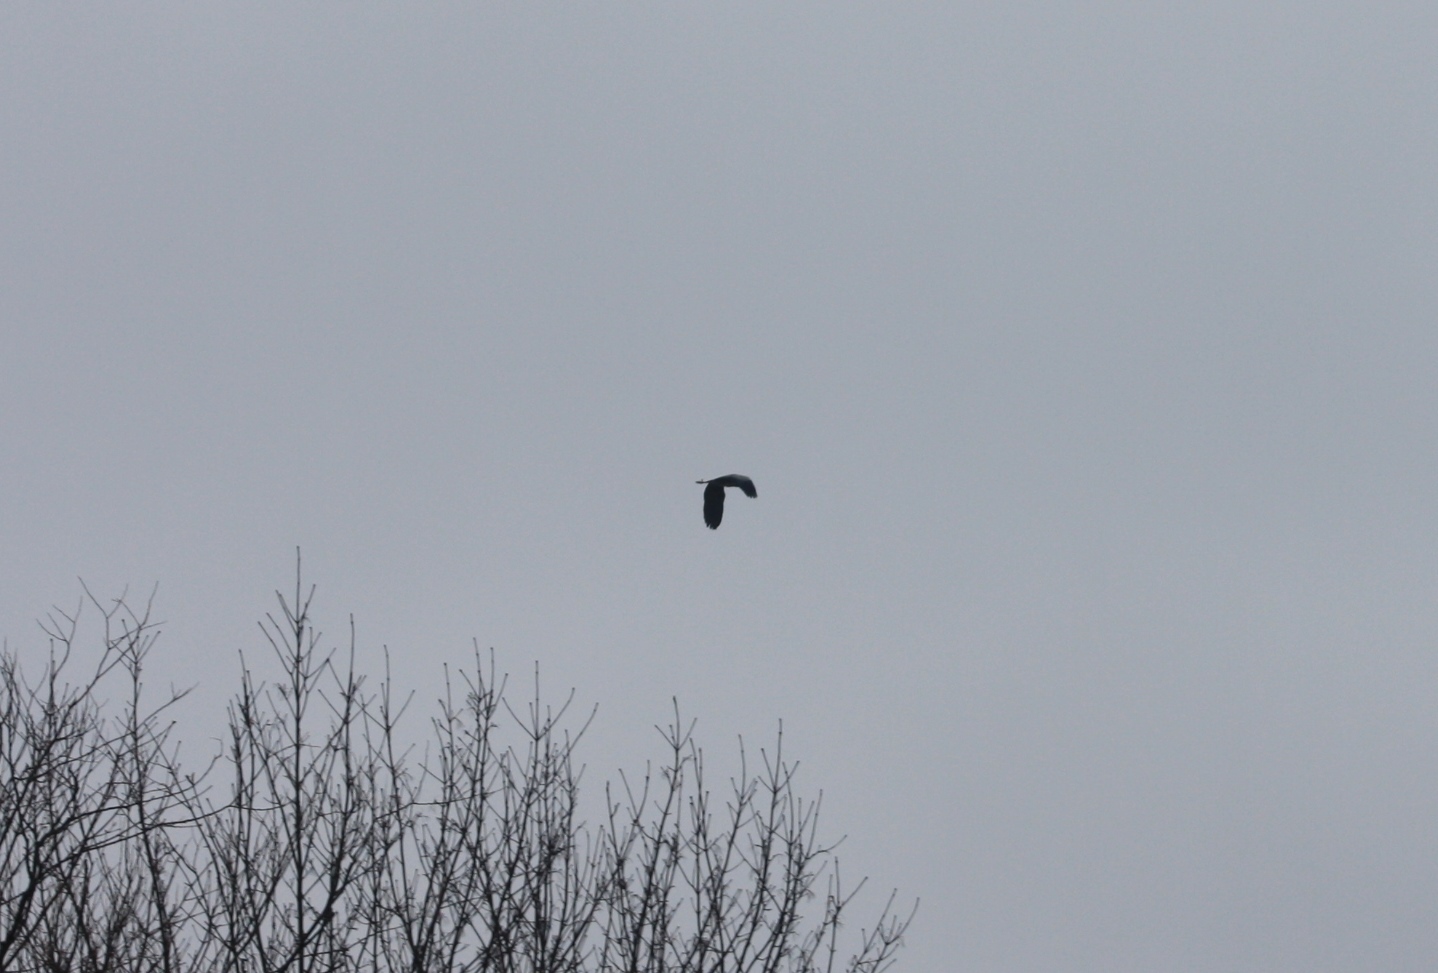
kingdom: Animalia
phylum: Chordata
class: Aves
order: Pelecaniformes
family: Ardeidae
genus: Ardea
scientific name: Ardea cinerea
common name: Grey heron
